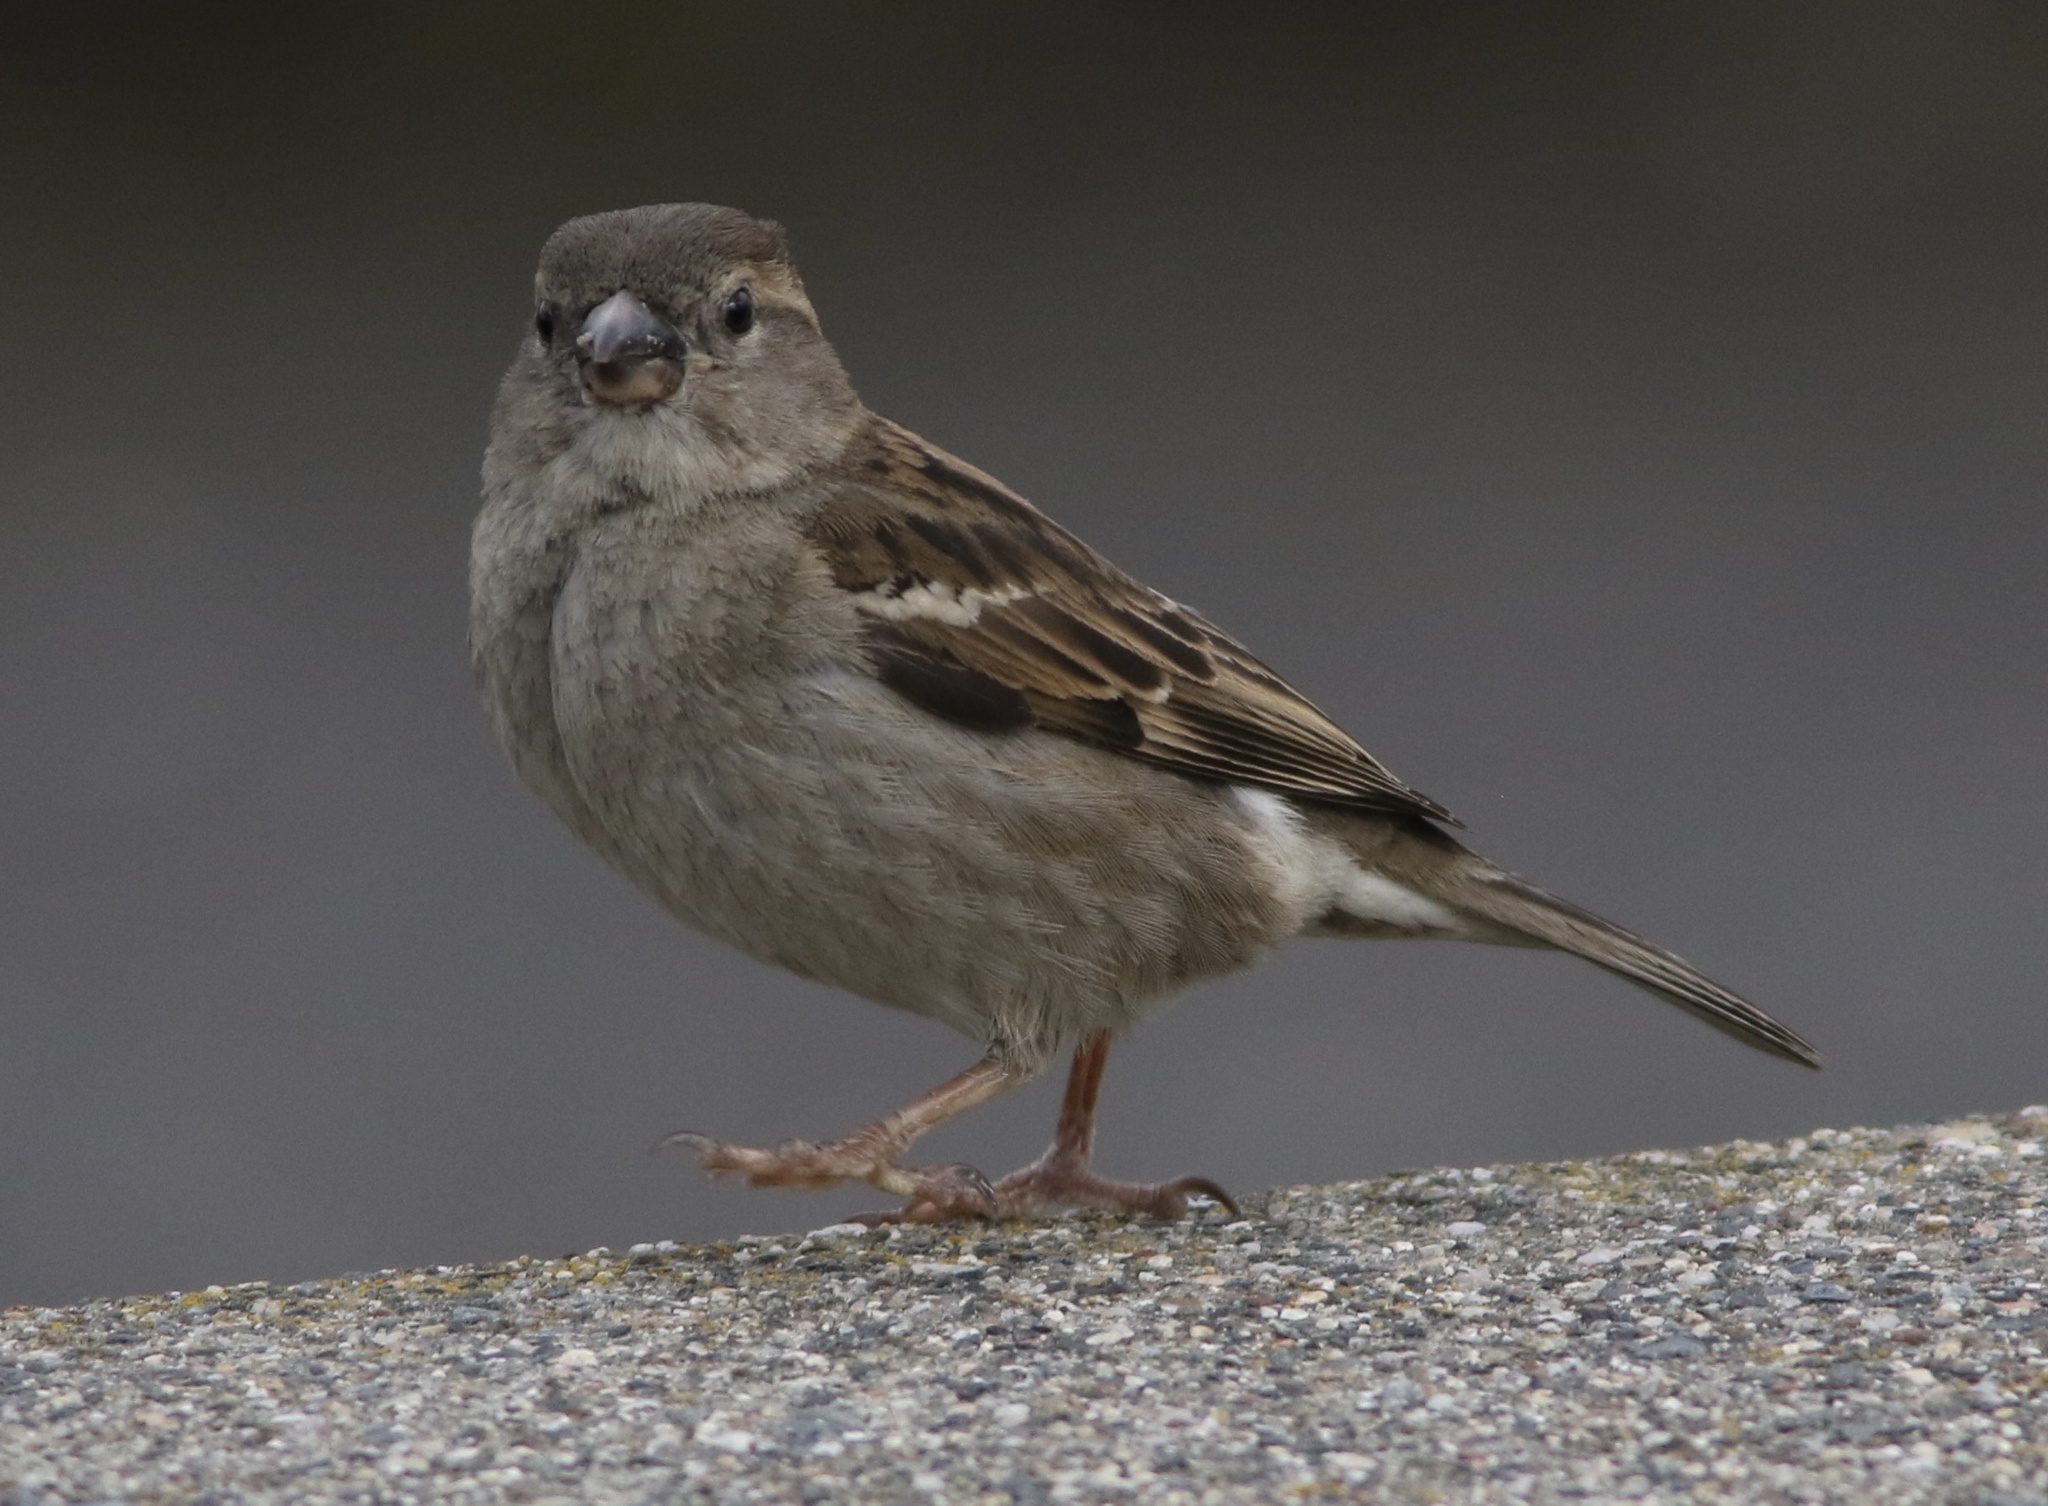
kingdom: Animalia
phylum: Chordata
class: Aves
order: Passeriformes
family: Passeridae
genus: Passer
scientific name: Passer domesticus
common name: House sparrow
